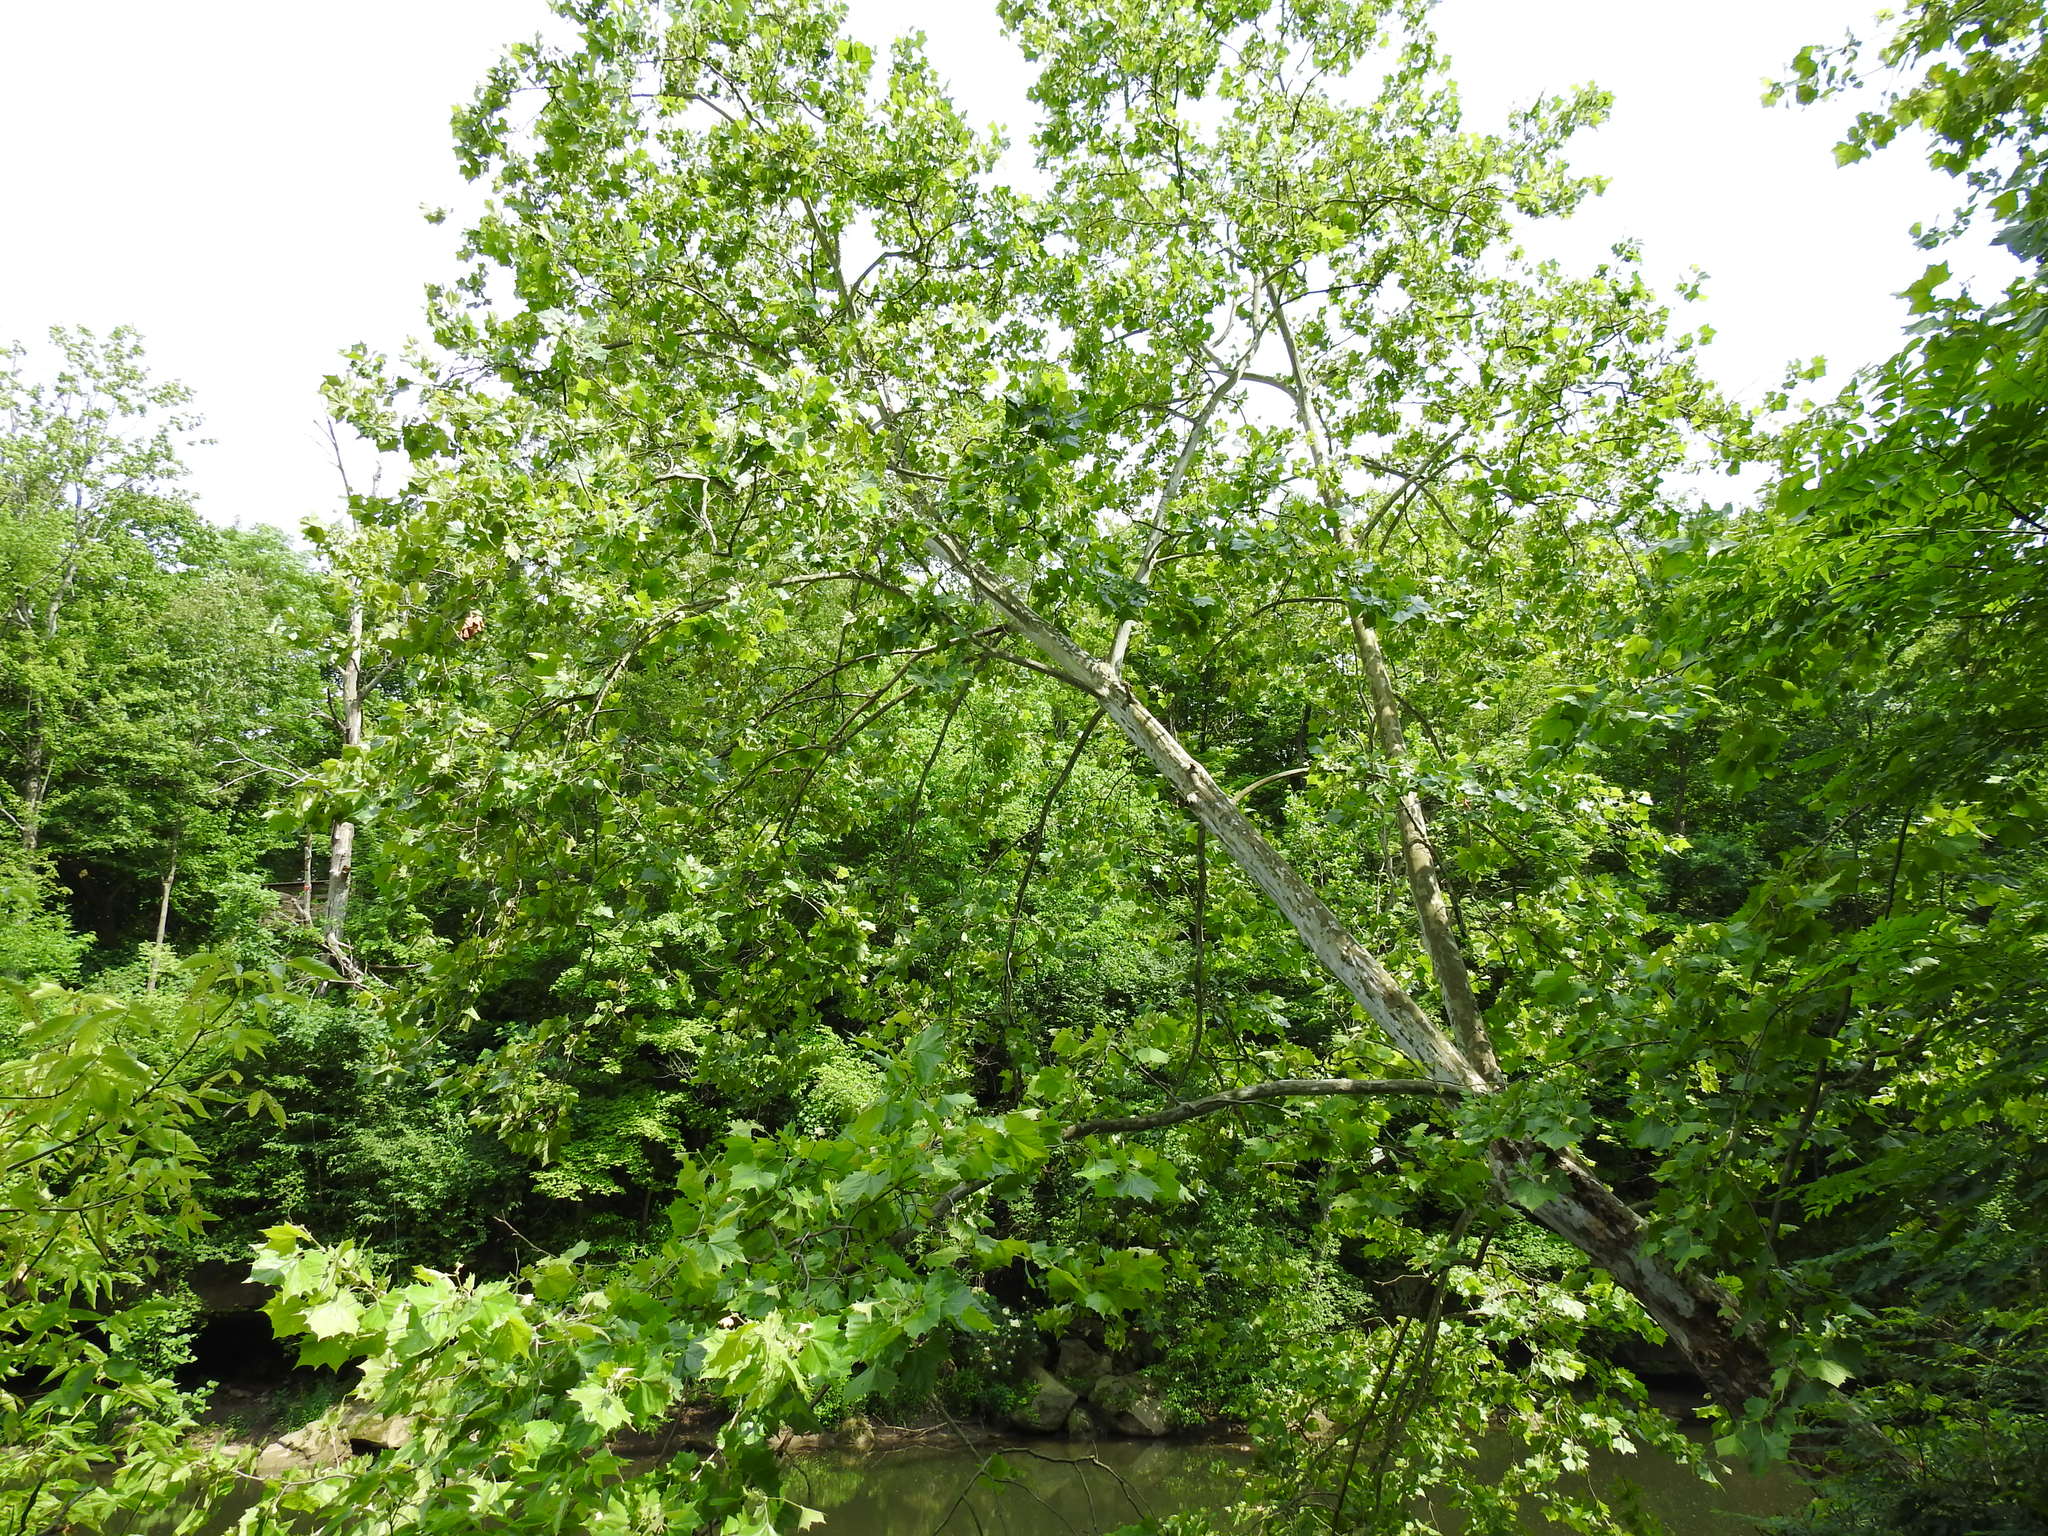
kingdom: Plantae
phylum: Tracheophyta
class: Magnoliopsida
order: Proteales
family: Platanaceae
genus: Platanus
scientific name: Platanus occidentalis
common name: American sycamore
